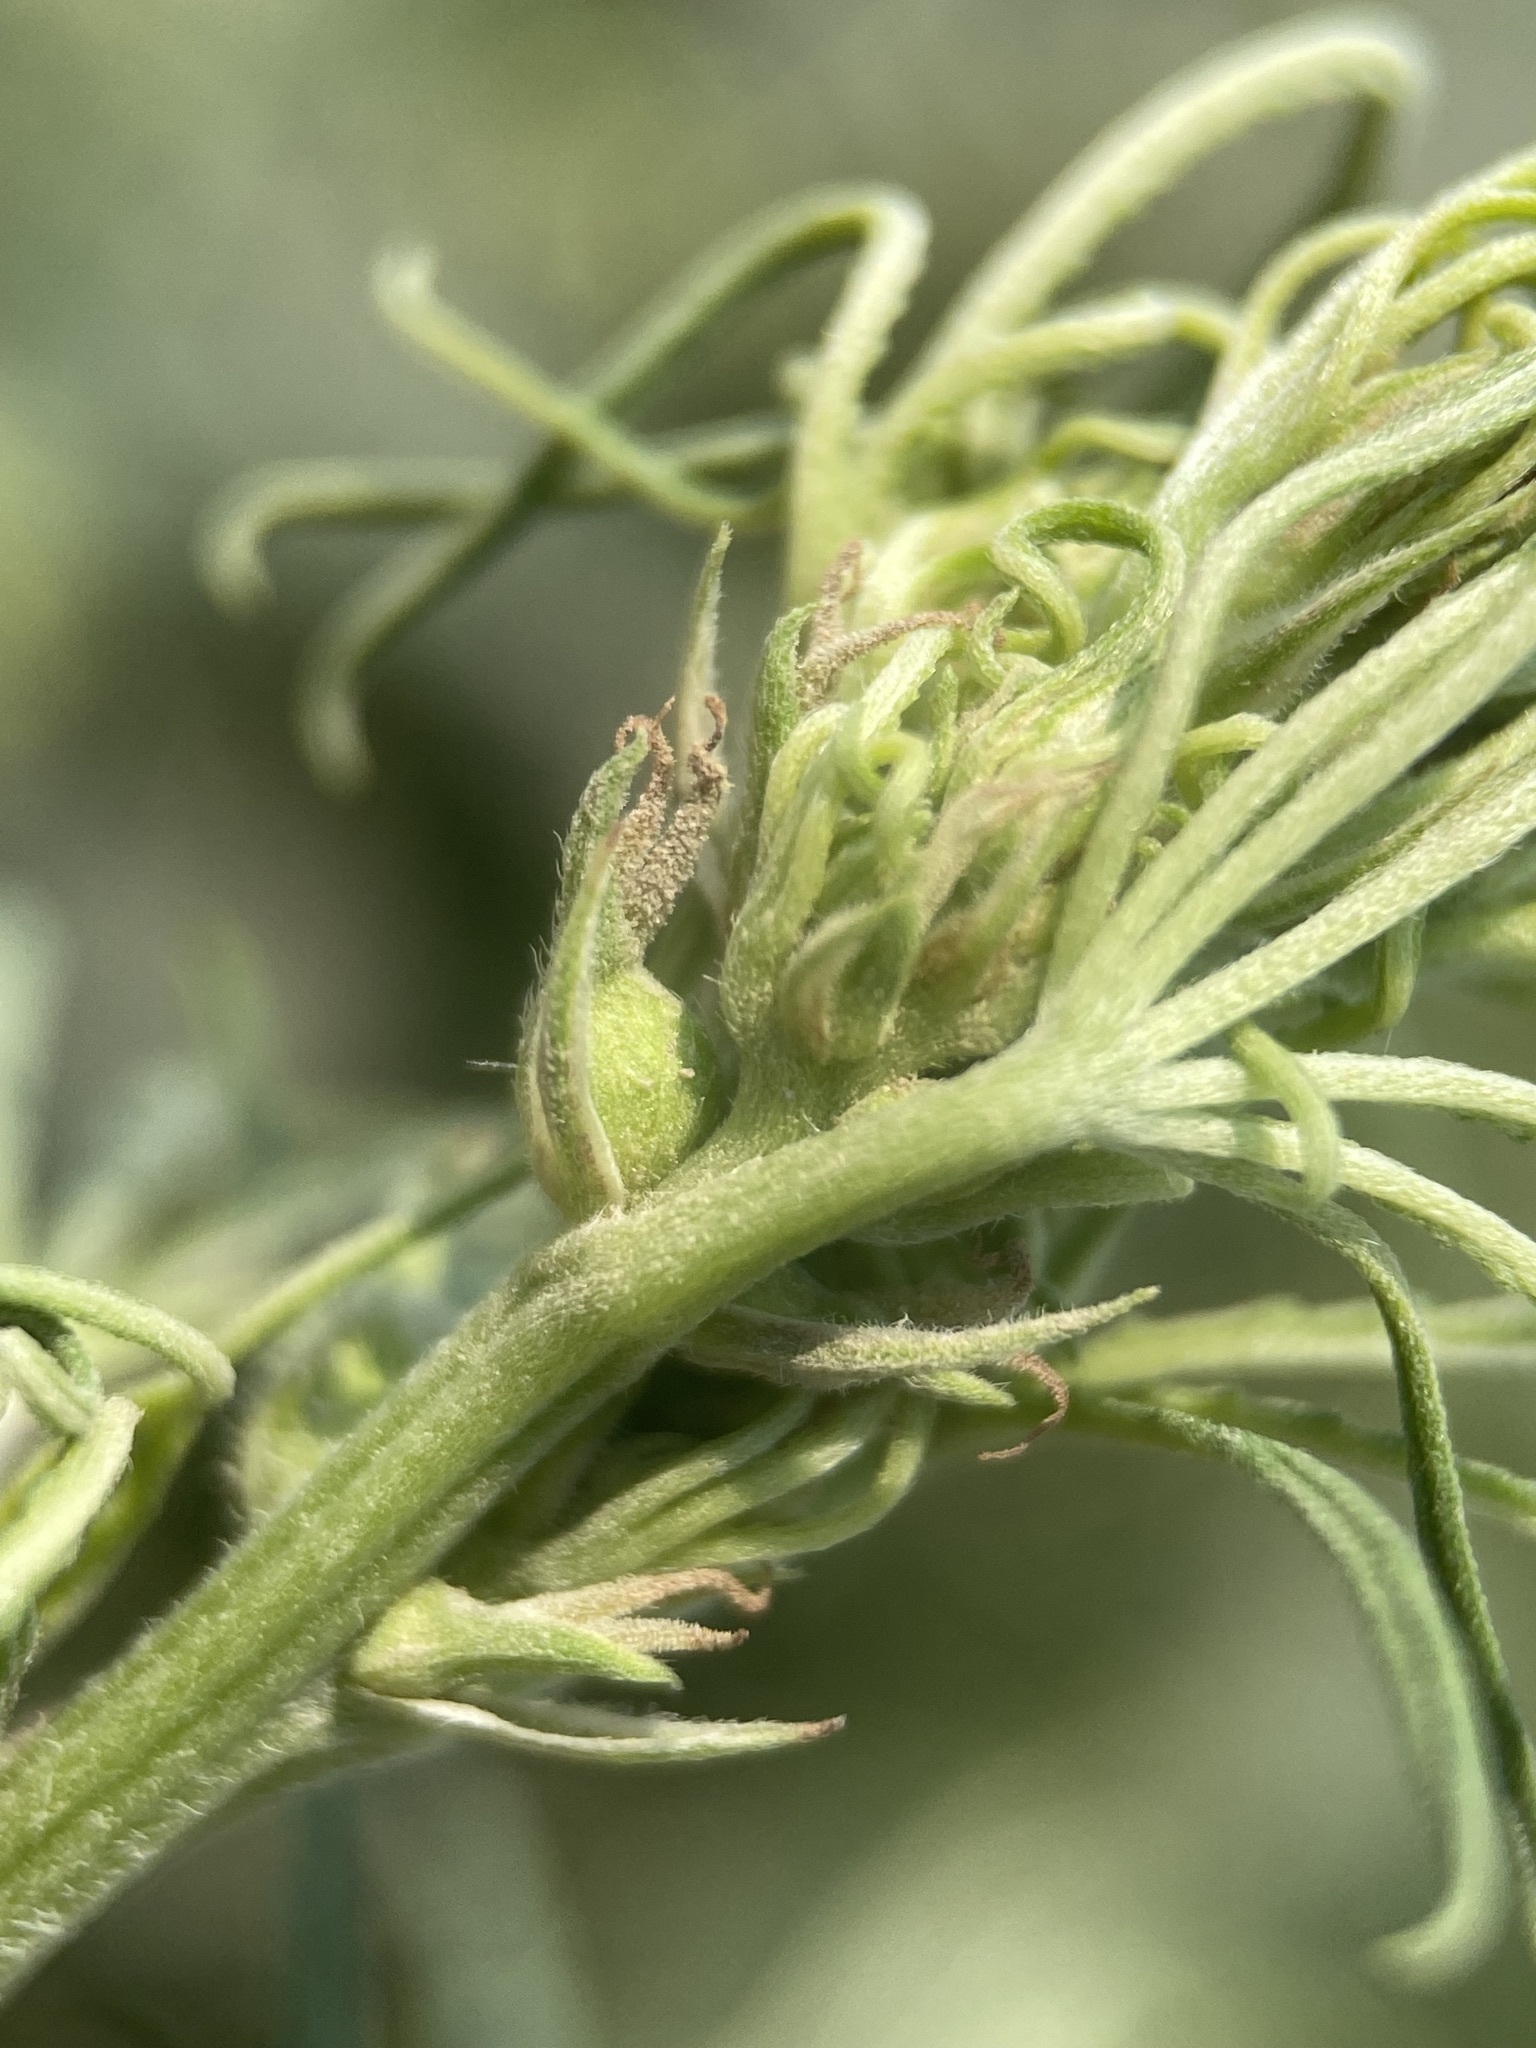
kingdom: Plantae
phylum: Tracheophyta
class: Magnoliopsida
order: Rosales
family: Cannabaceae
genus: Cannabis
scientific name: Cannabis sativa
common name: Hemp
